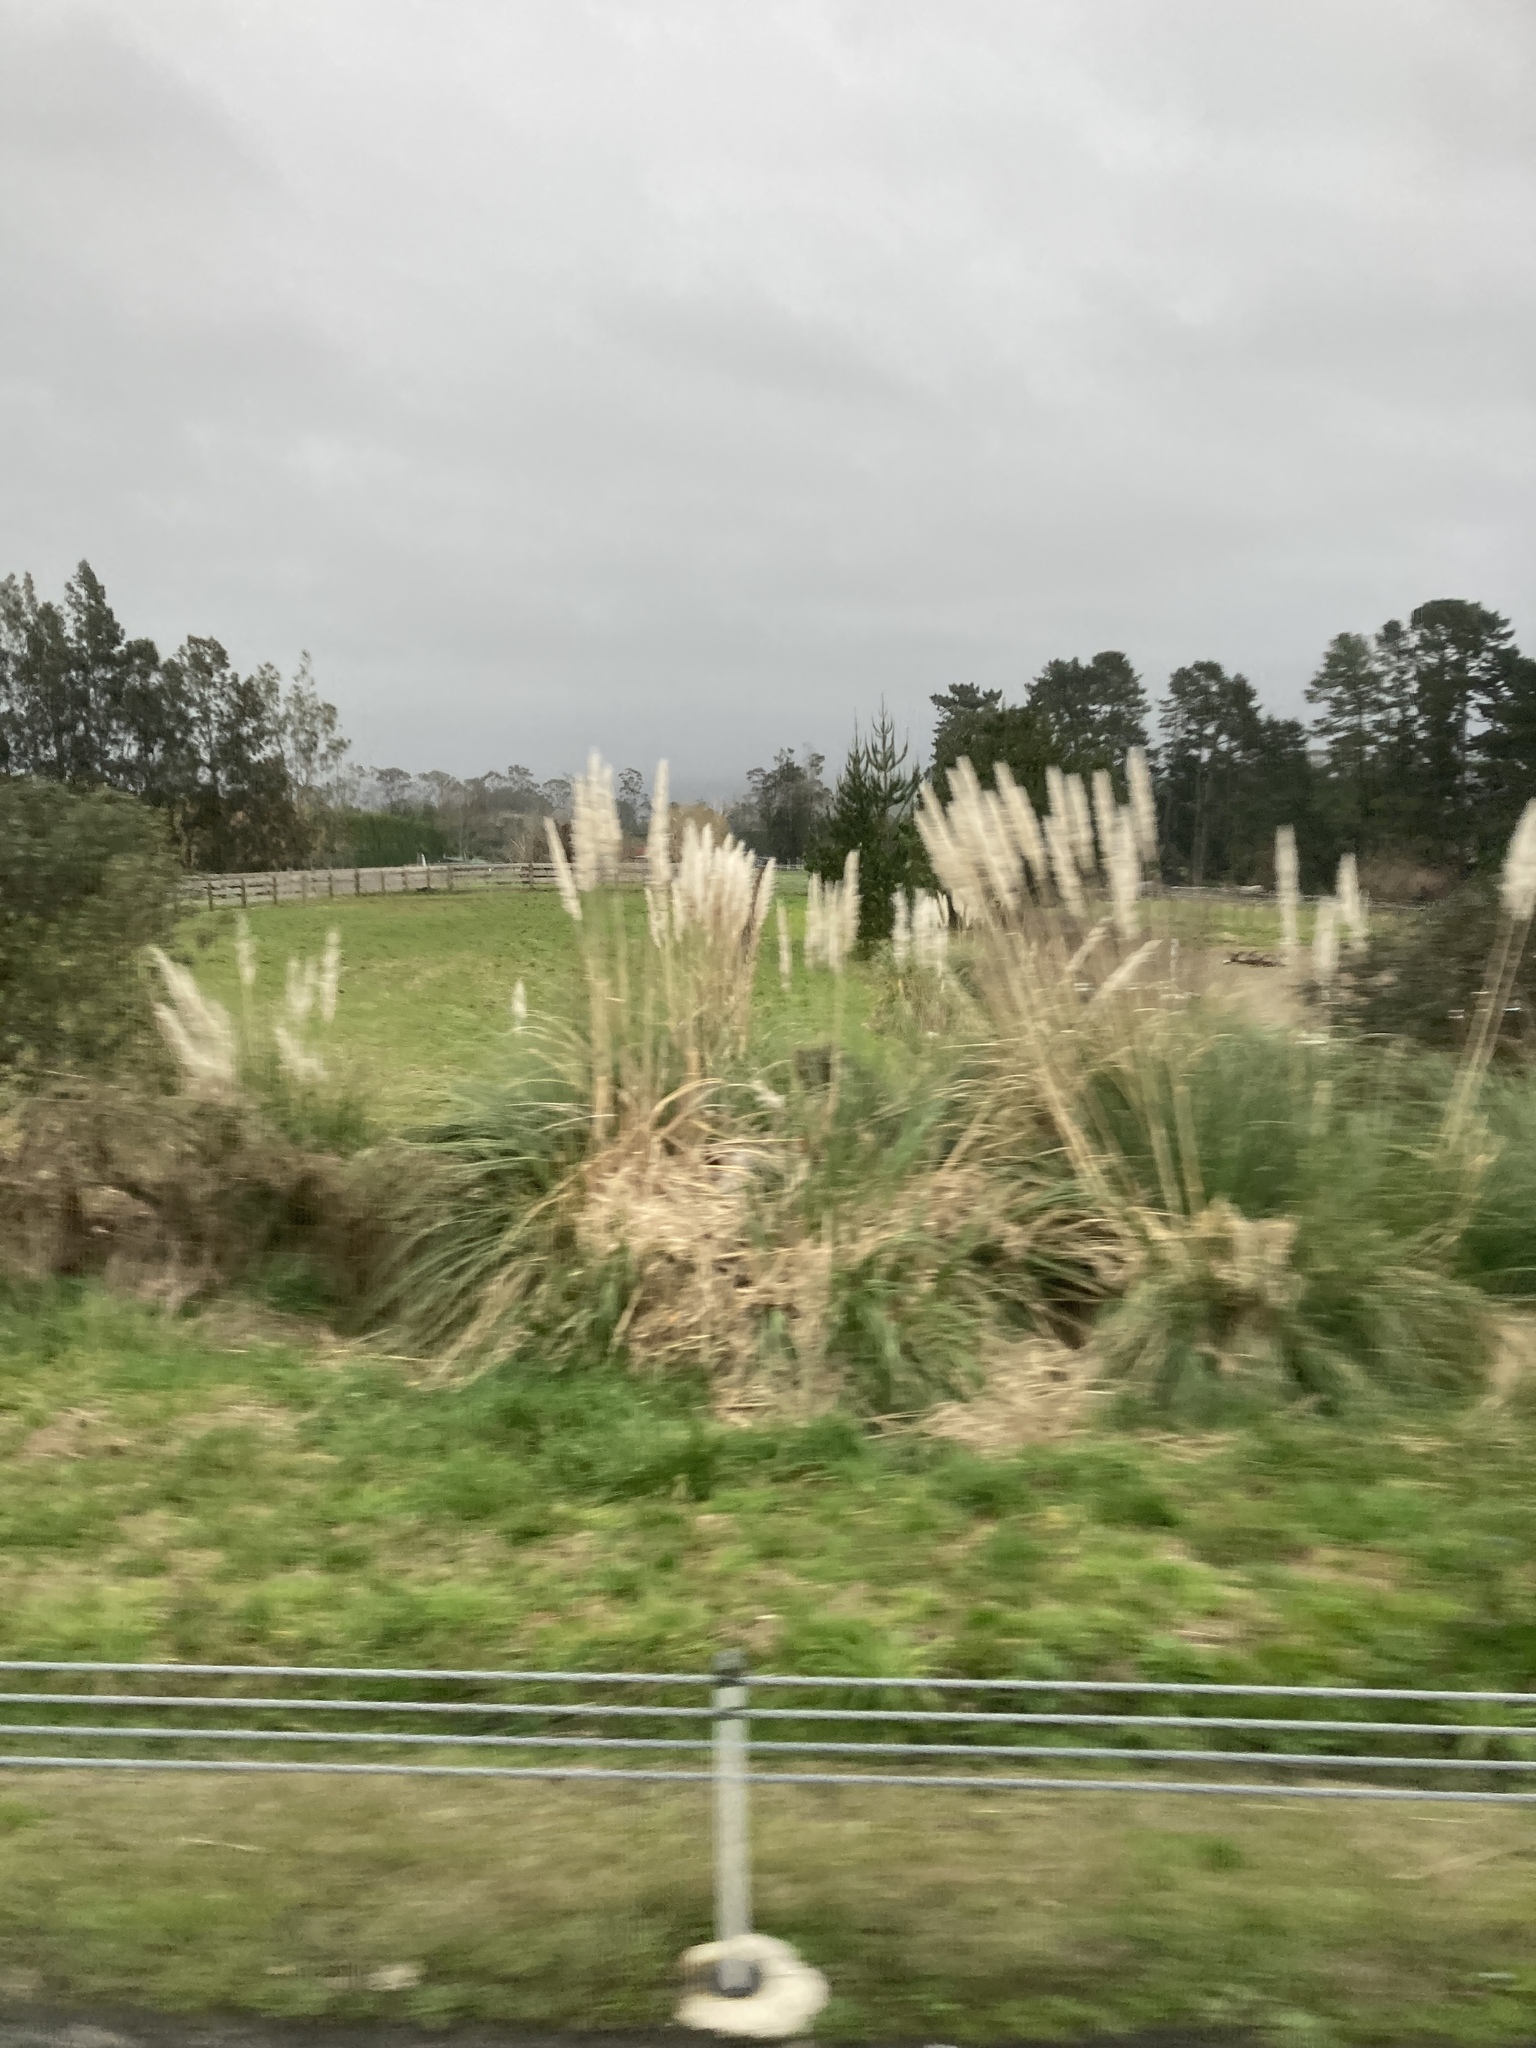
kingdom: Plantae
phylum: Tracheophyta
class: Liliopsida
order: Poales
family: Poaceae
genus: Cortaderia
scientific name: Cortaderia selloana
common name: Uruguayan pampas grass
